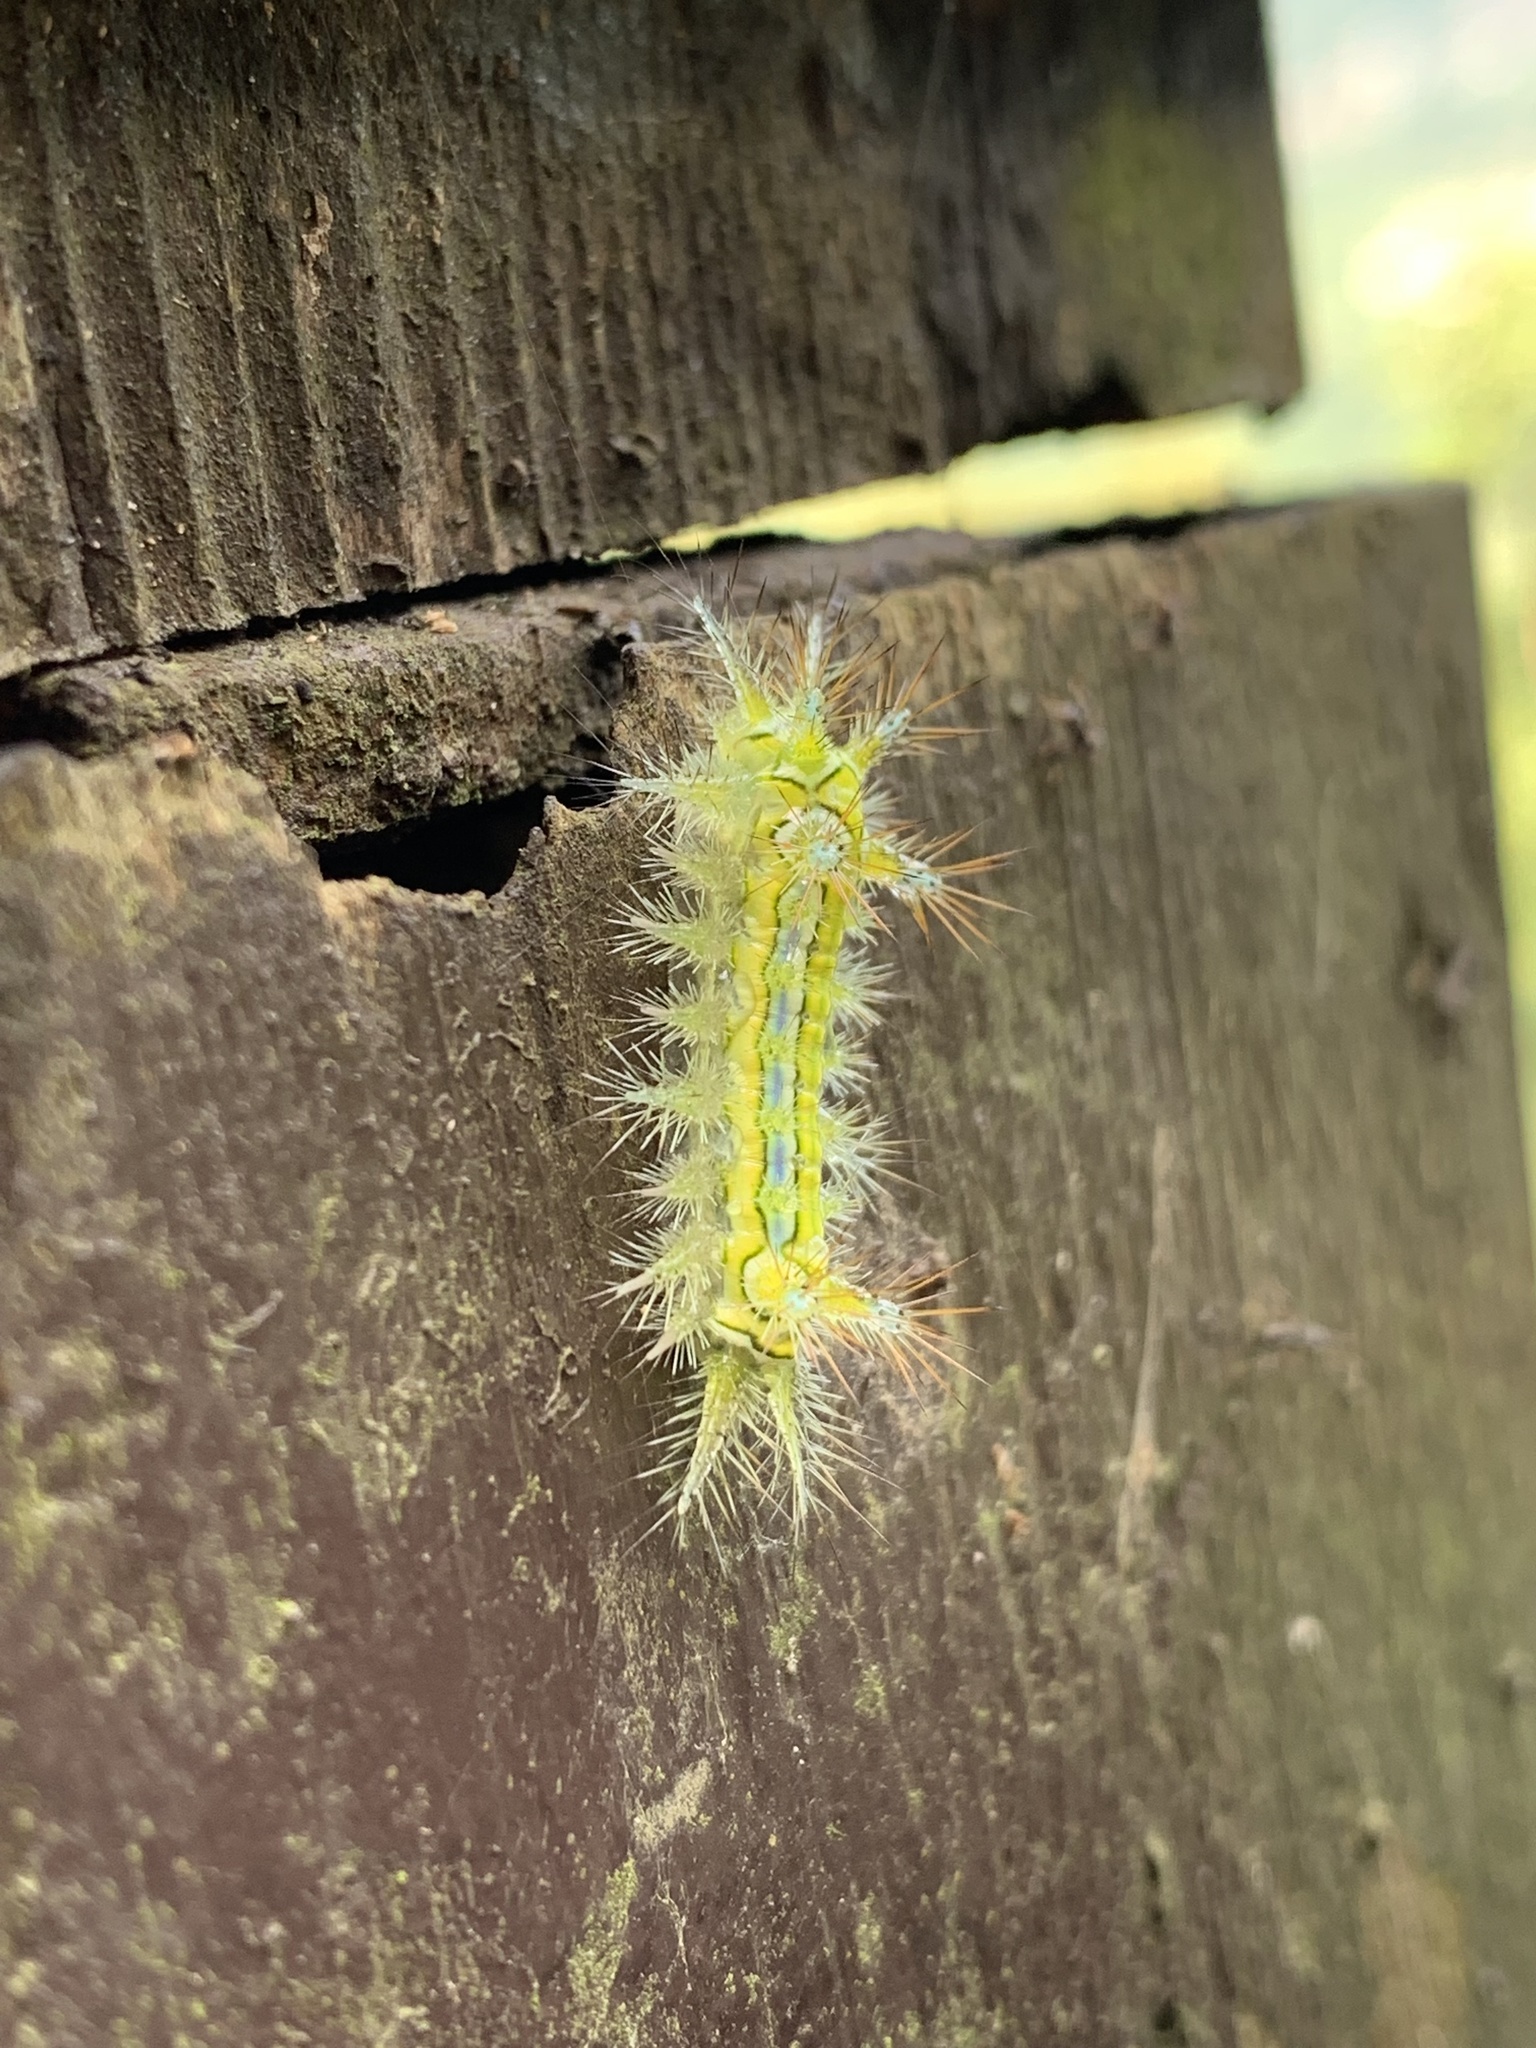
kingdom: Animalia
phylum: Arthropoda
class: Insecta
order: Lepidoptera
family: Limacodidae
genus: Susica
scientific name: Susica sinensis
